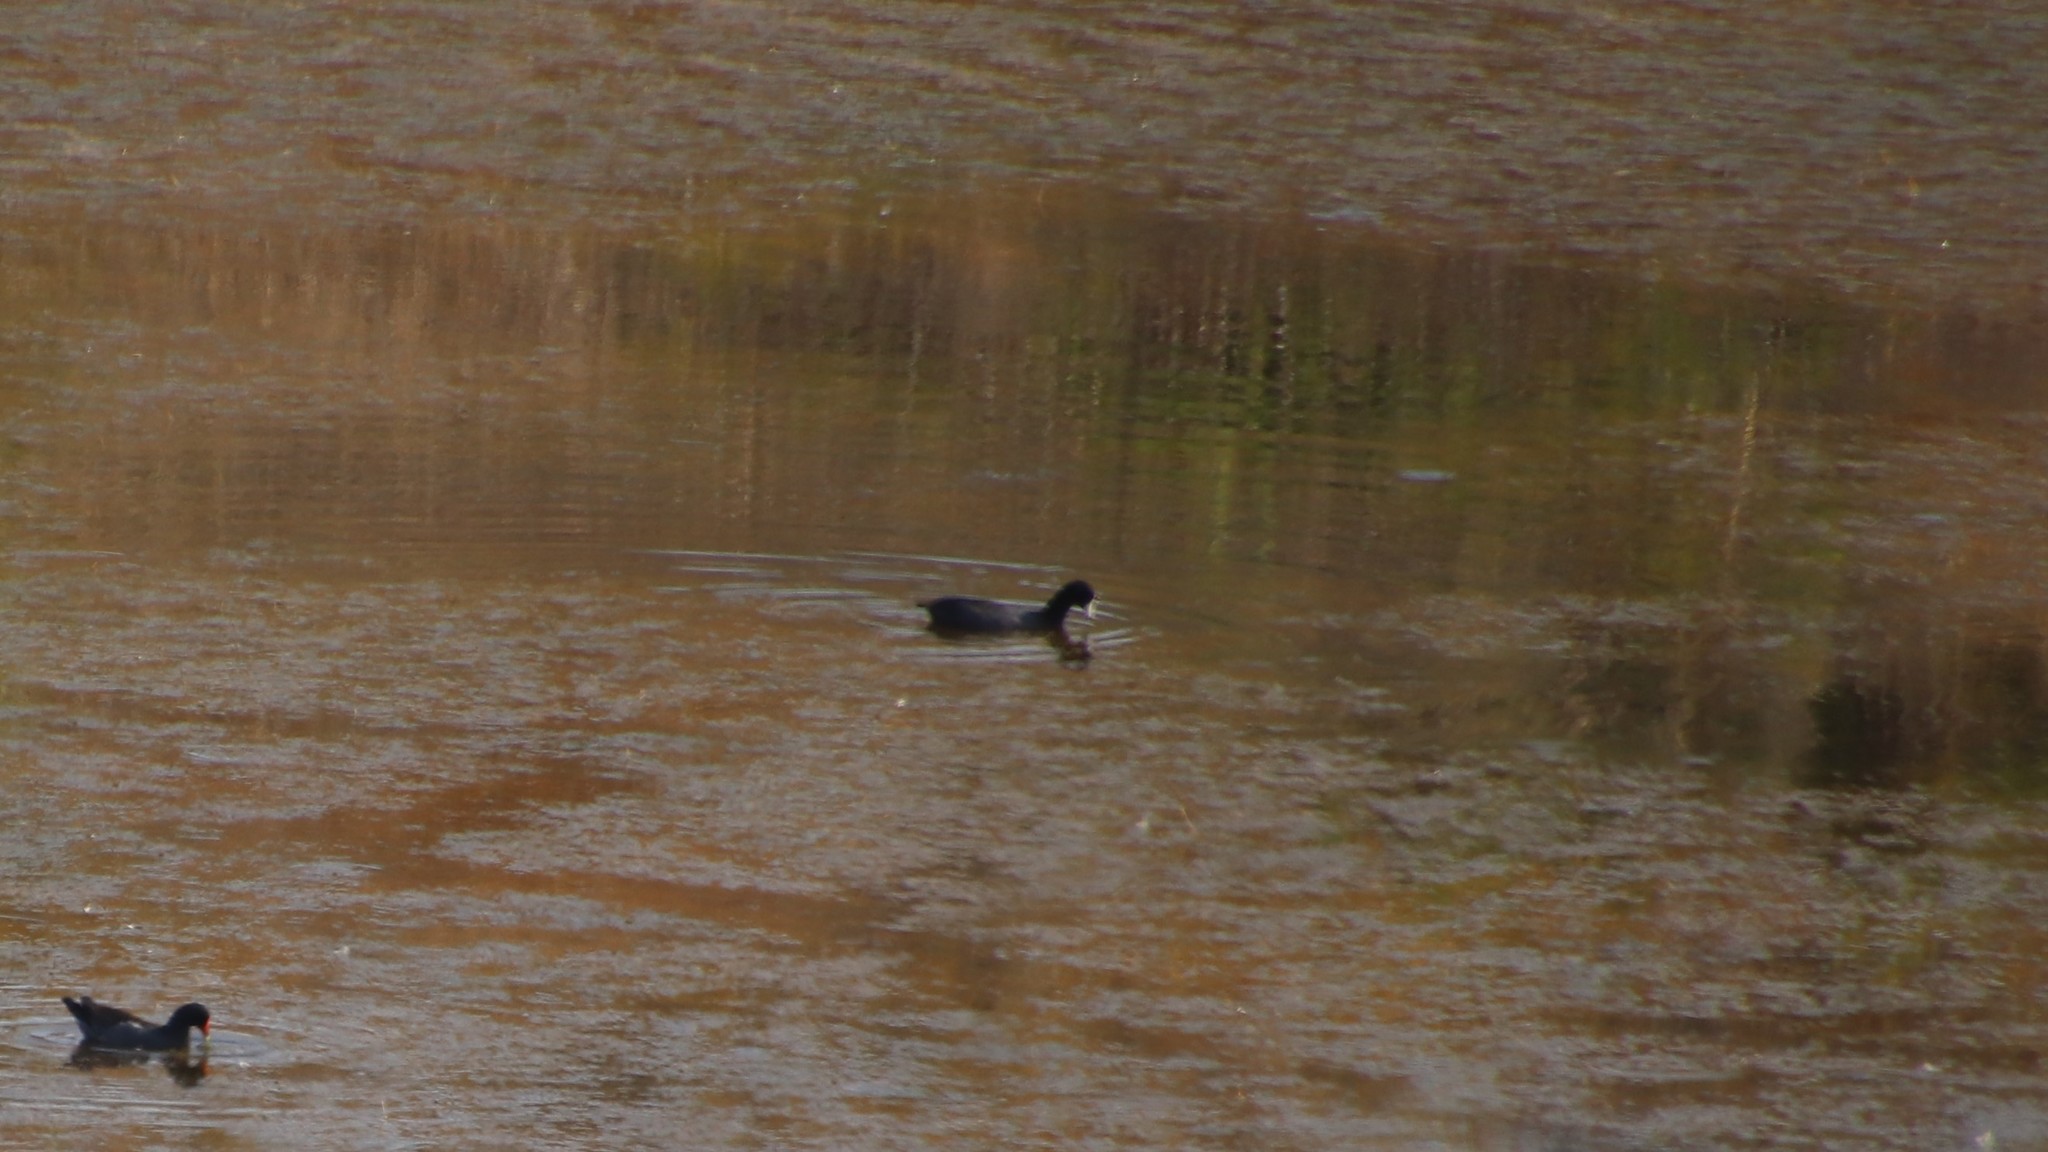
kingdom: Animalia
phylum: Chordata
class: Aves
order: Gruiformes
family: Rallidae
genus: Fulica
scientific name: Fulica americana
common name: American coot
